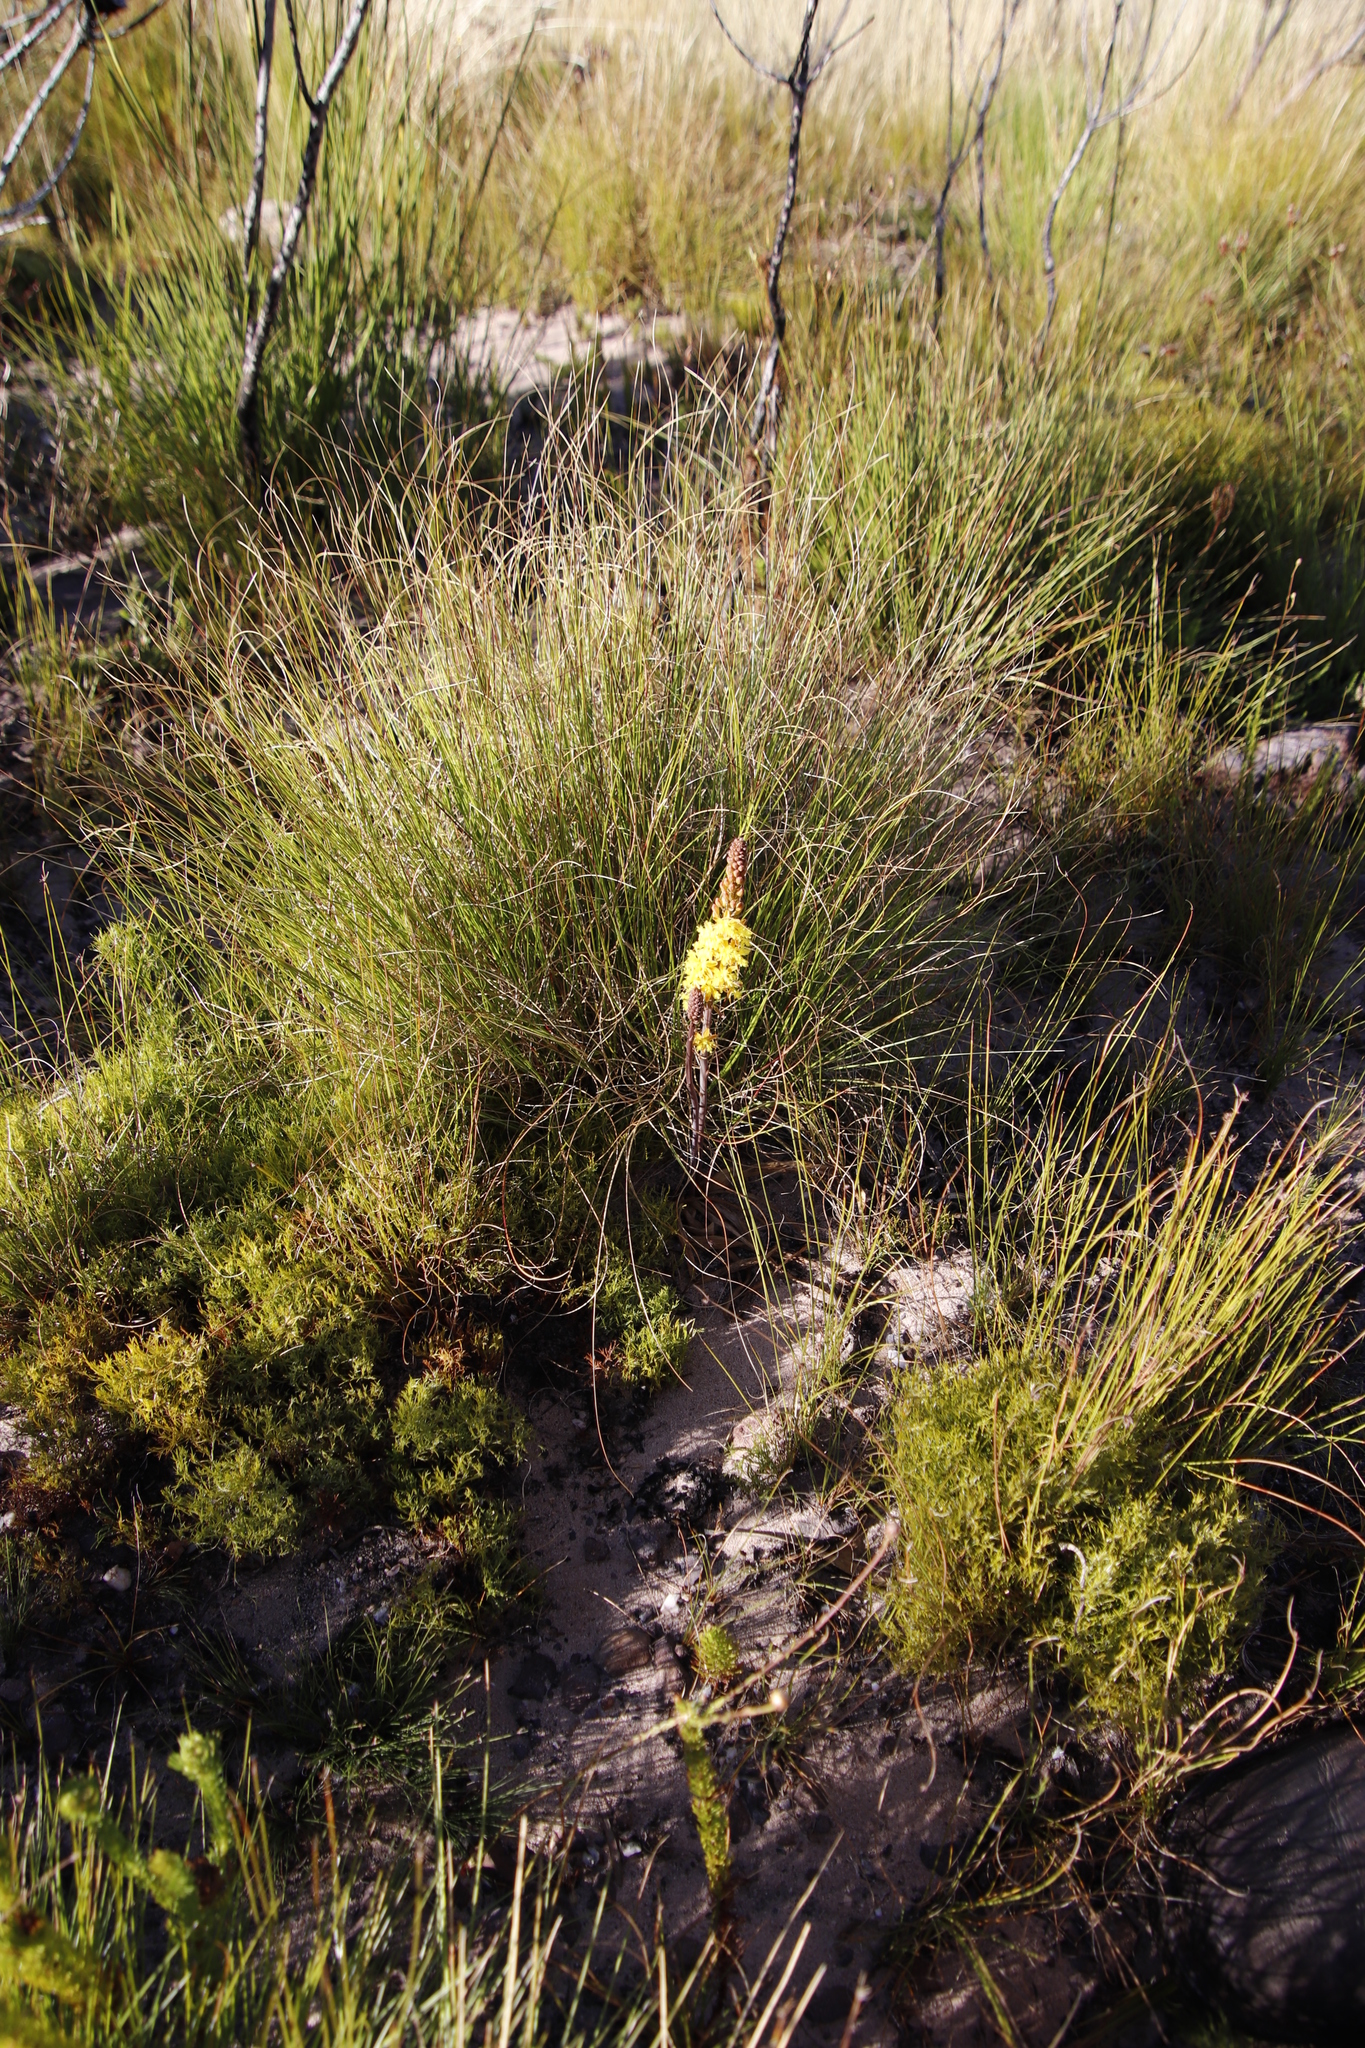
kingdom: Plantae
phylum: Tracheophyta
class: Liliopsida
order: Asparagales
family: Asphodelaceae
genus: Bulbine
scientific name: Bulbine cepacea
